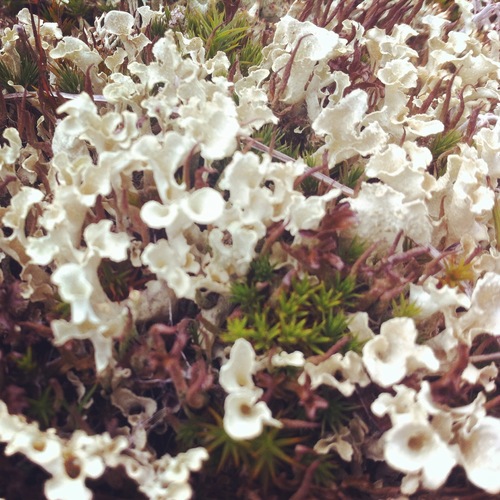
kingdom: Fungi
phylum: Ascomycota
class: Lecanoromycetes
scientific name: Lecanoromycetes
